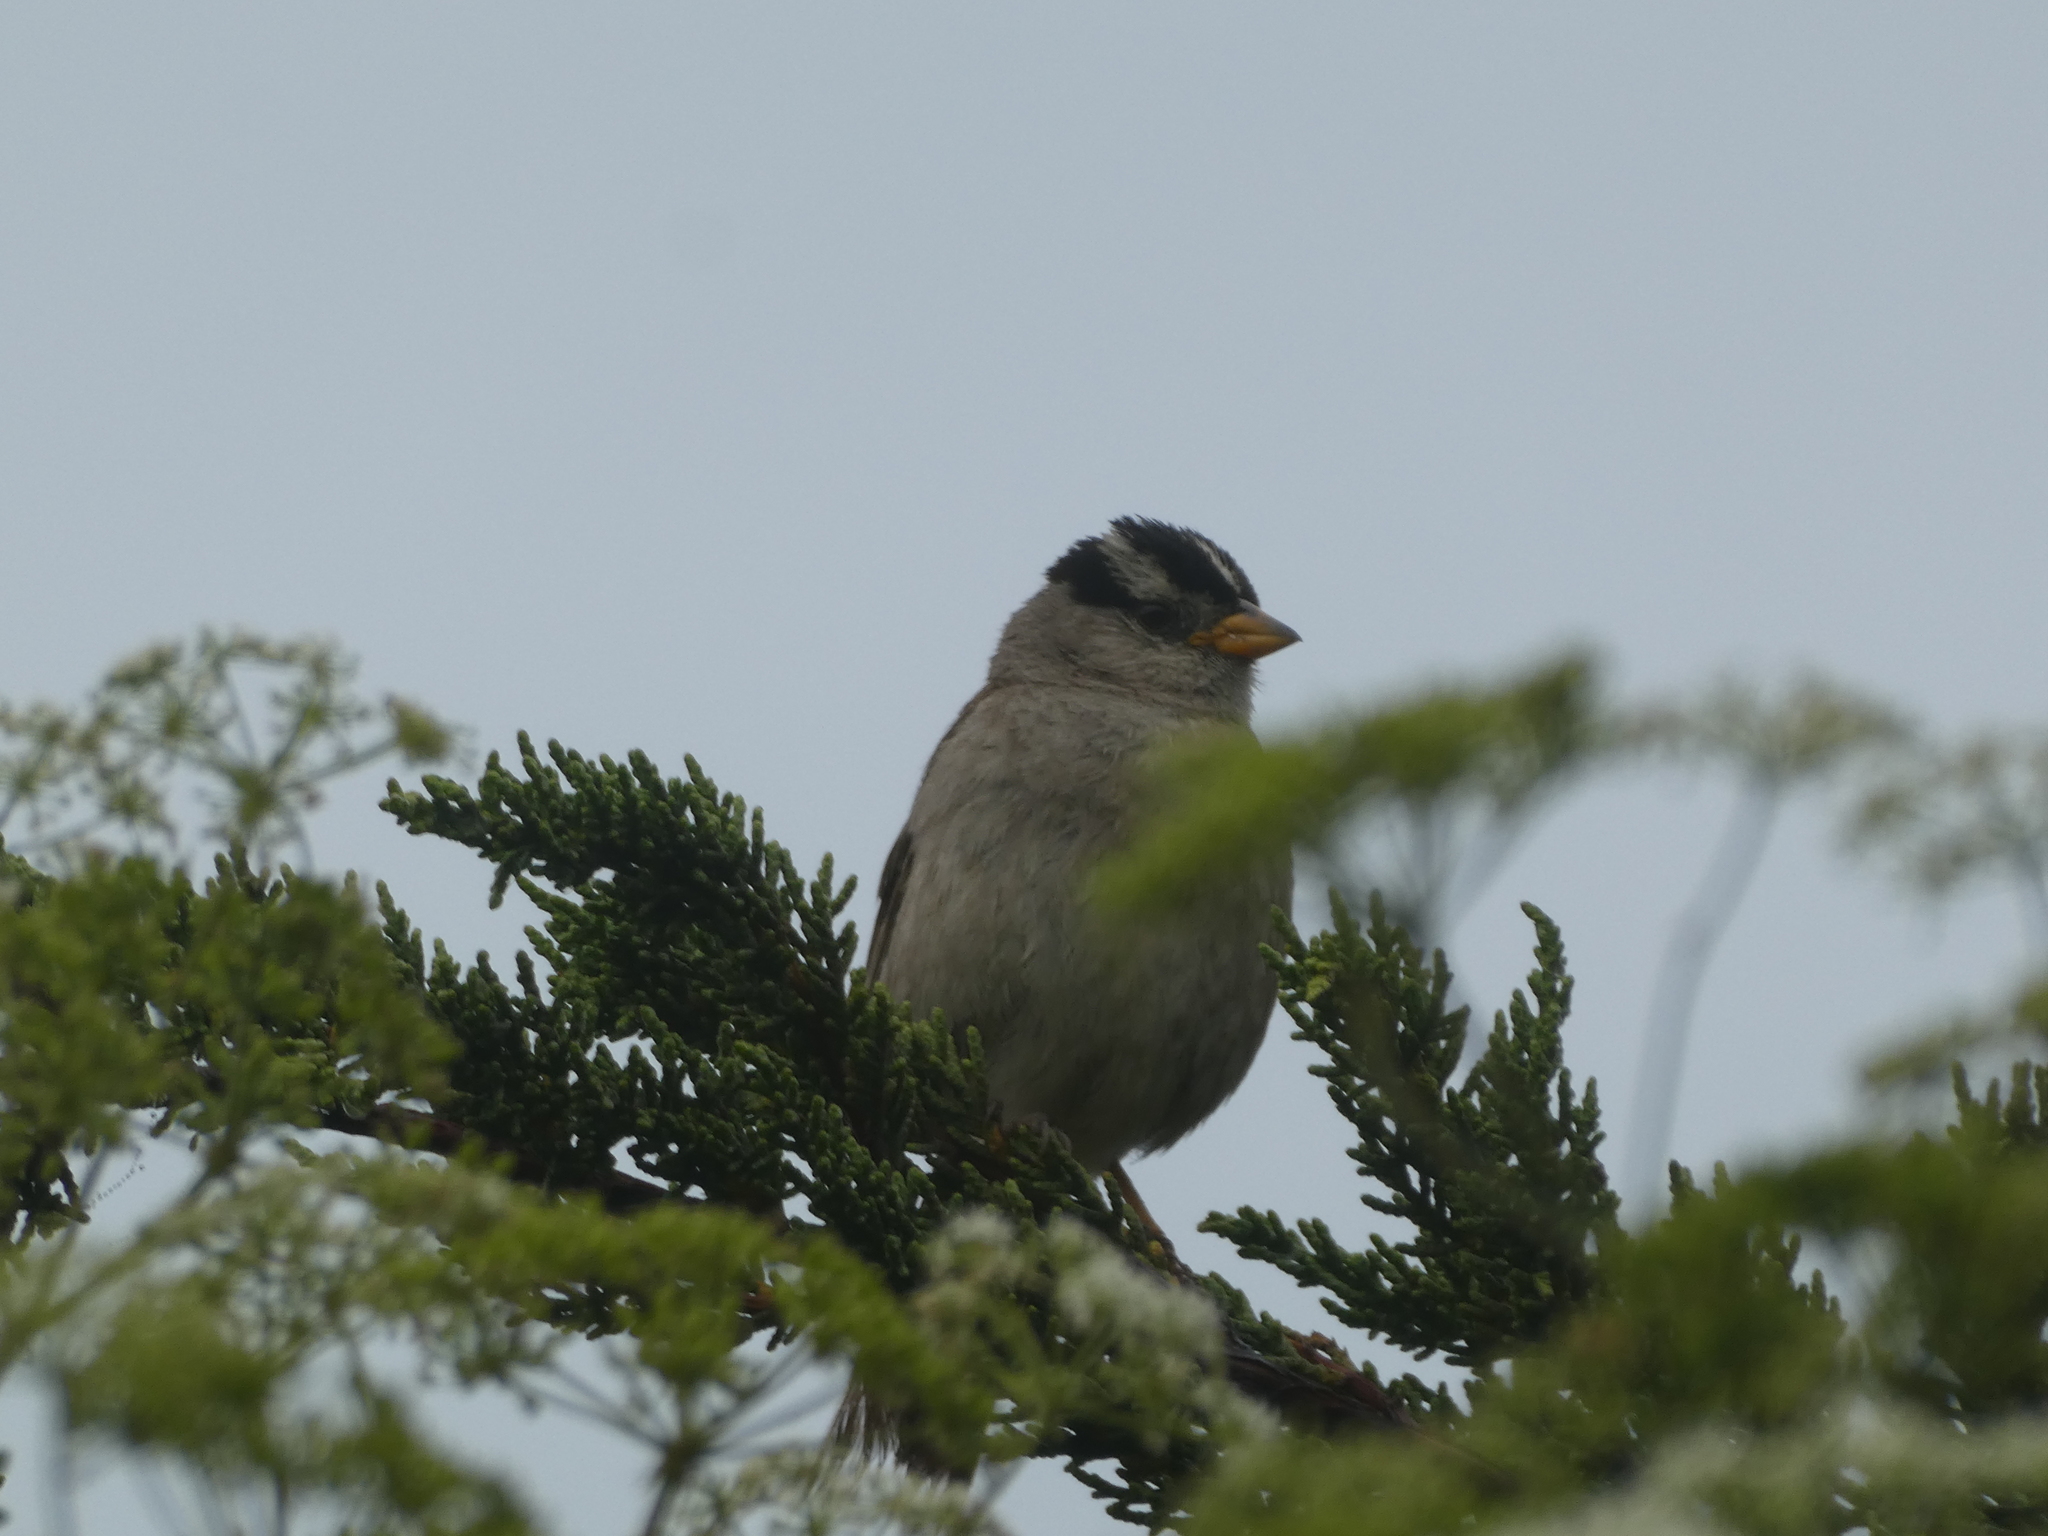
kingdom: Animalia
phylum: Chordata
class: Aves
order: Passeriformes
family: Passerellidae
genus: Zonotrichia
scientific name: Zonotrichia leucophrys
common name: White-crowned sparrow
